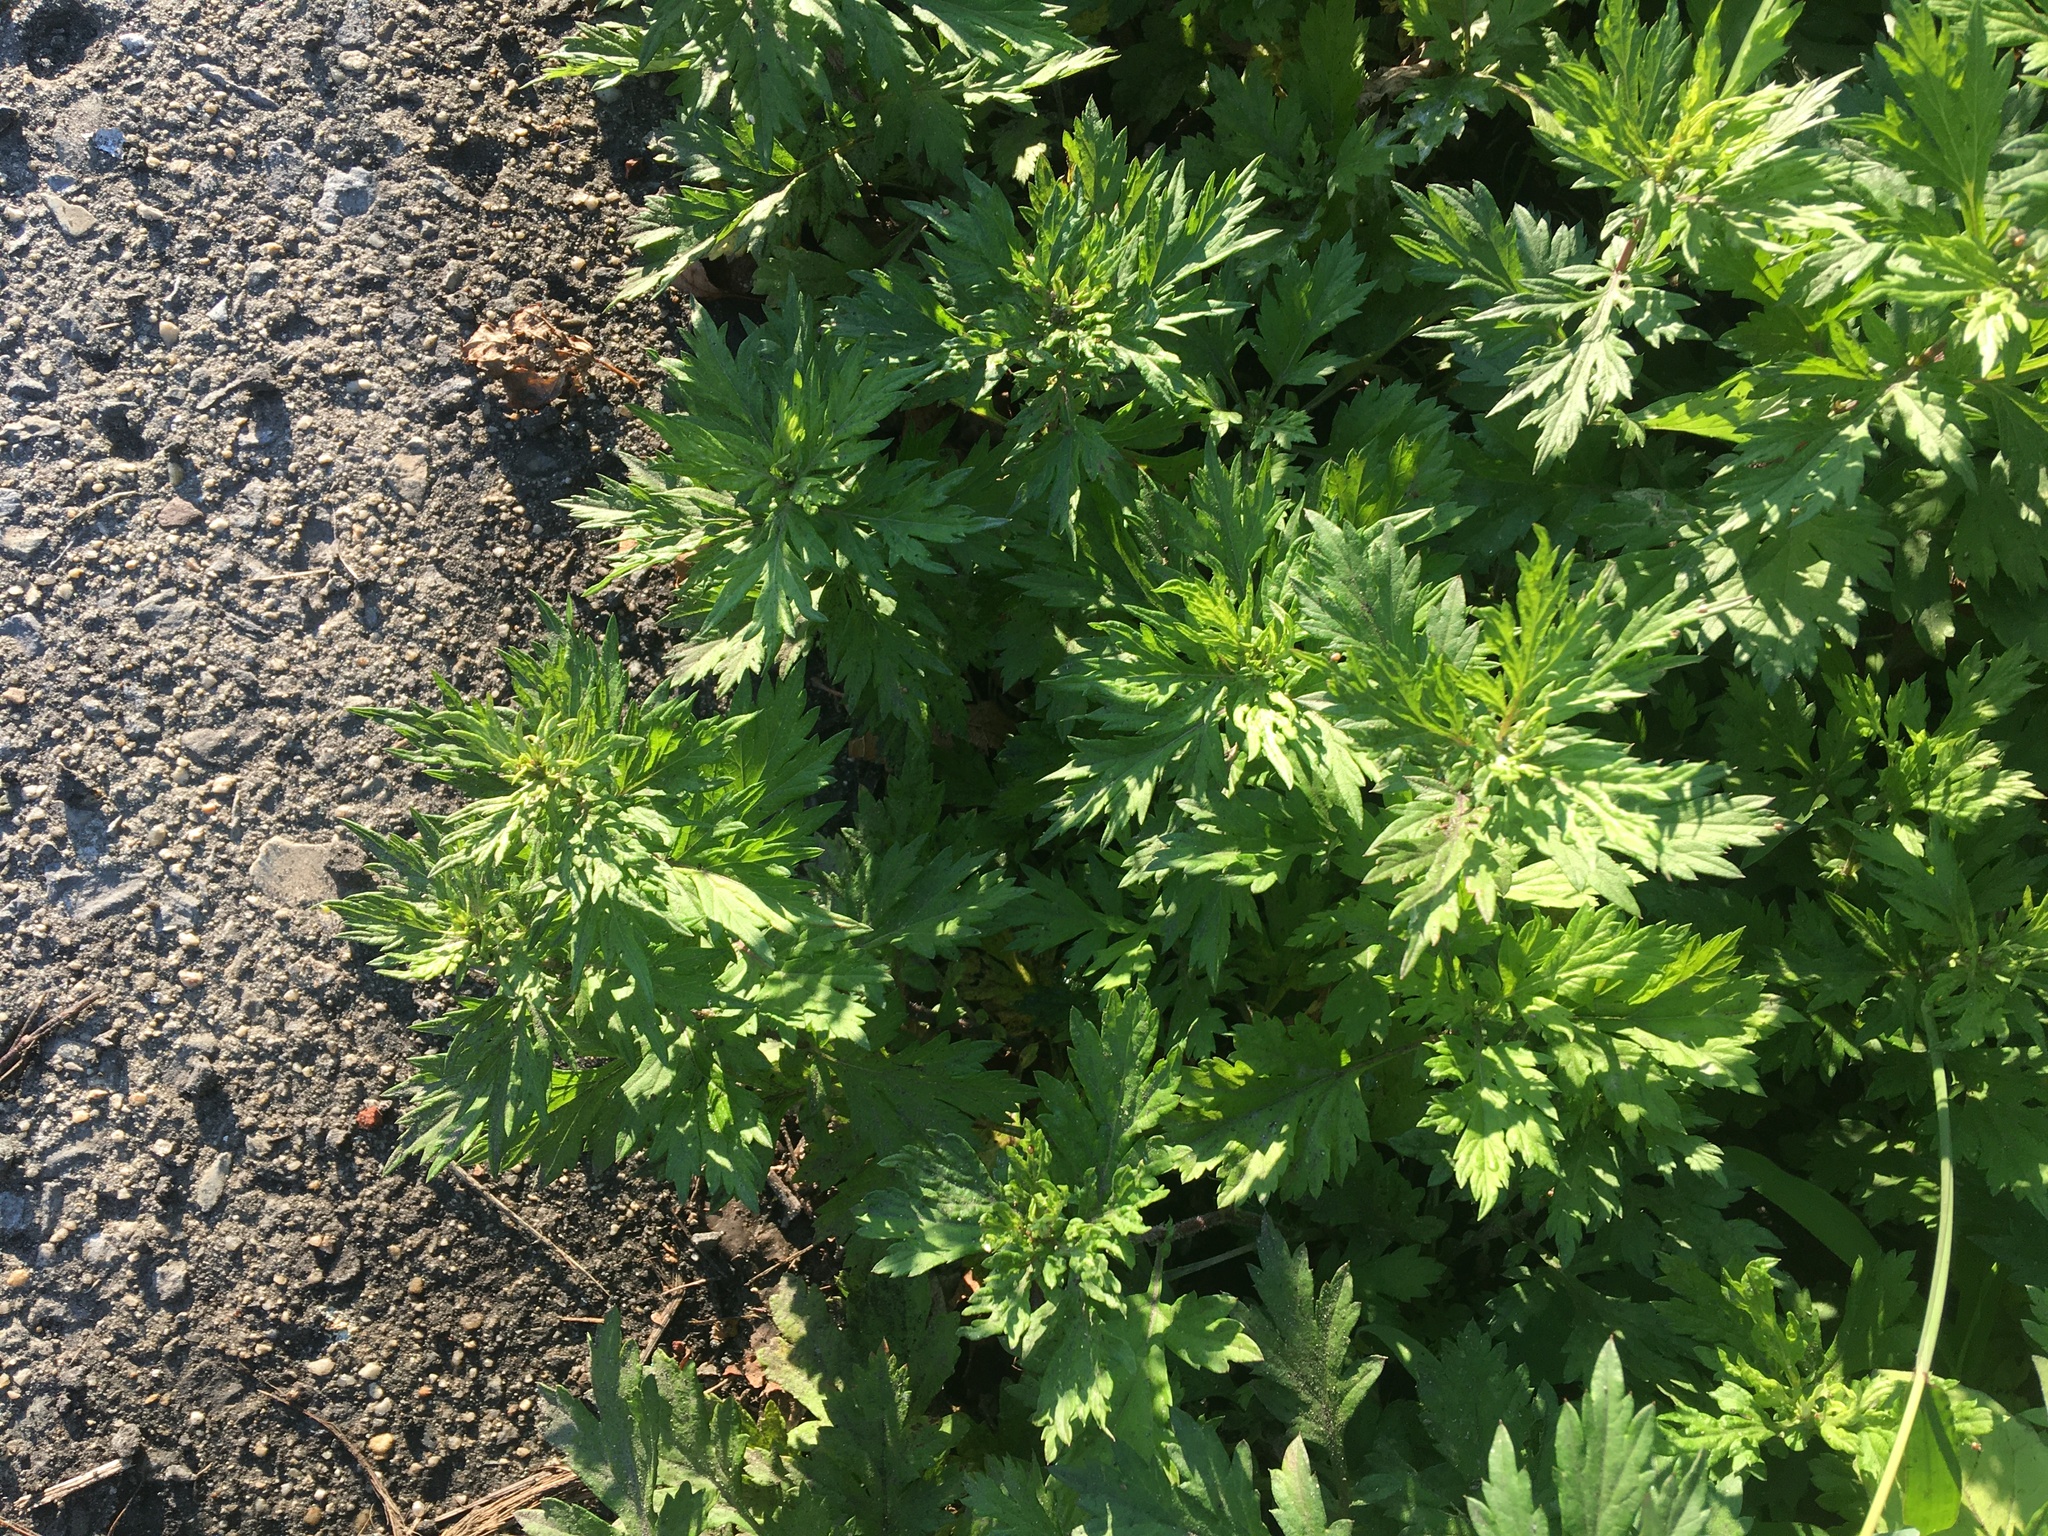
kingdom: Plantae
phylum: Tracheophyta
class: Magnoliopsida
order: Asterales
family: Asteraceae
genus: Artemisia
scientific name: Artemisia vulgaris
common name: Mugwort
